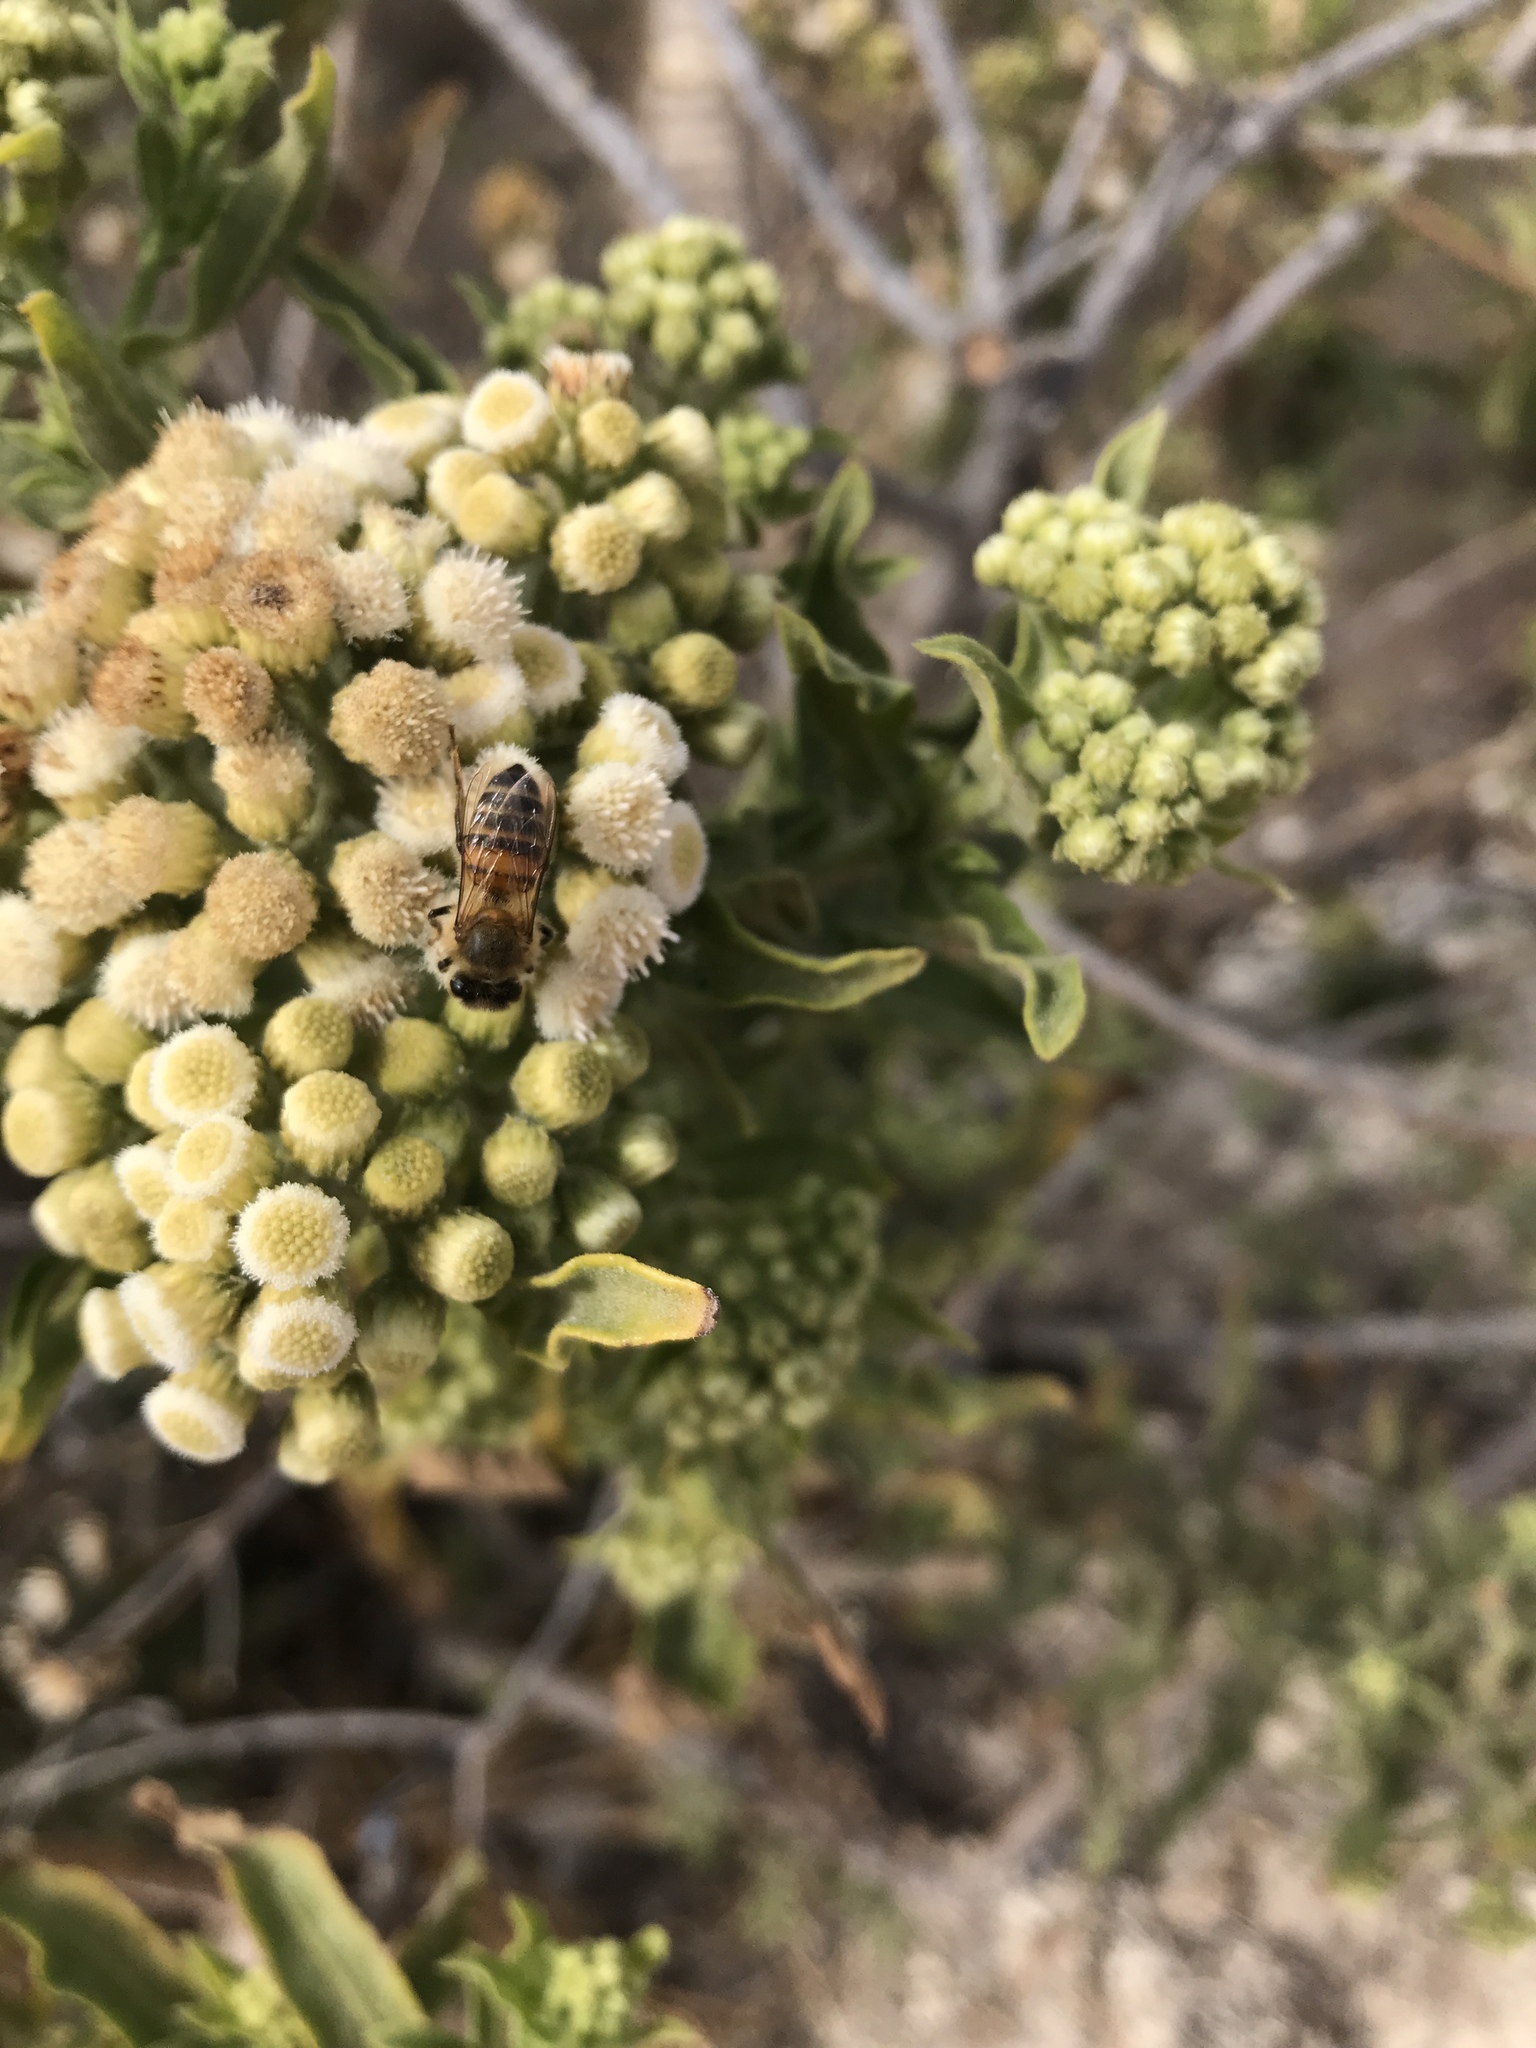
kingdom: Animalia
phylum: Arthropoda
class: Insecta
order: Hymenoptera
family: Apidae
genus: Apis
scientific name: Apis mellifera
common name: Honey bee
